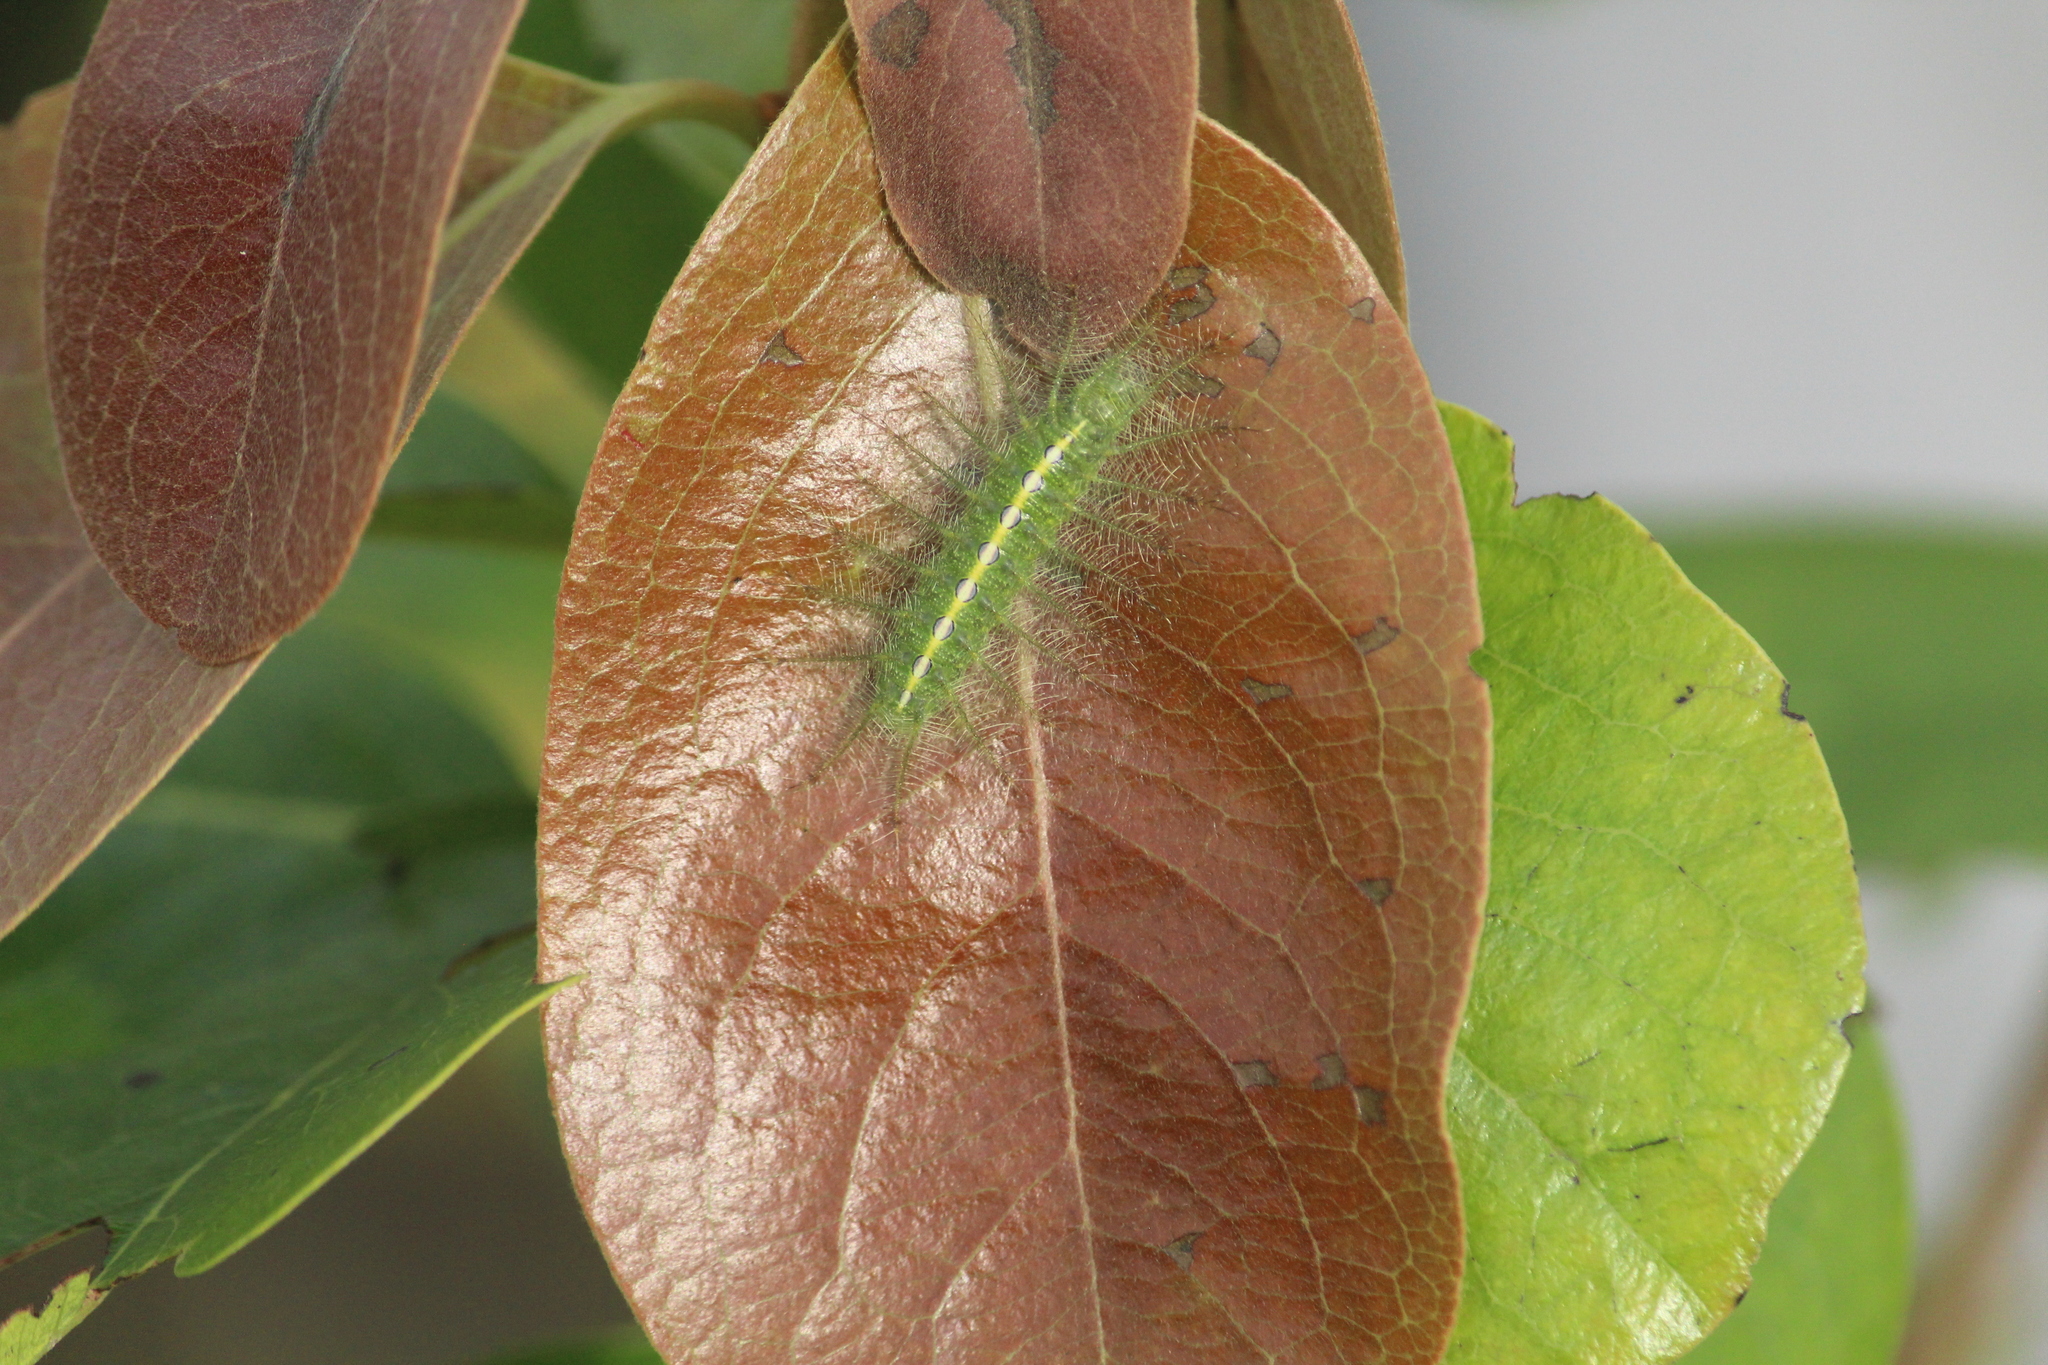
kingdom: Animalia
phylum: Arthropoda
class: Insecta
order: Lepidoptera
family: Nymphalidae
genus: Euthalia
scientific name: Euthalia nais
